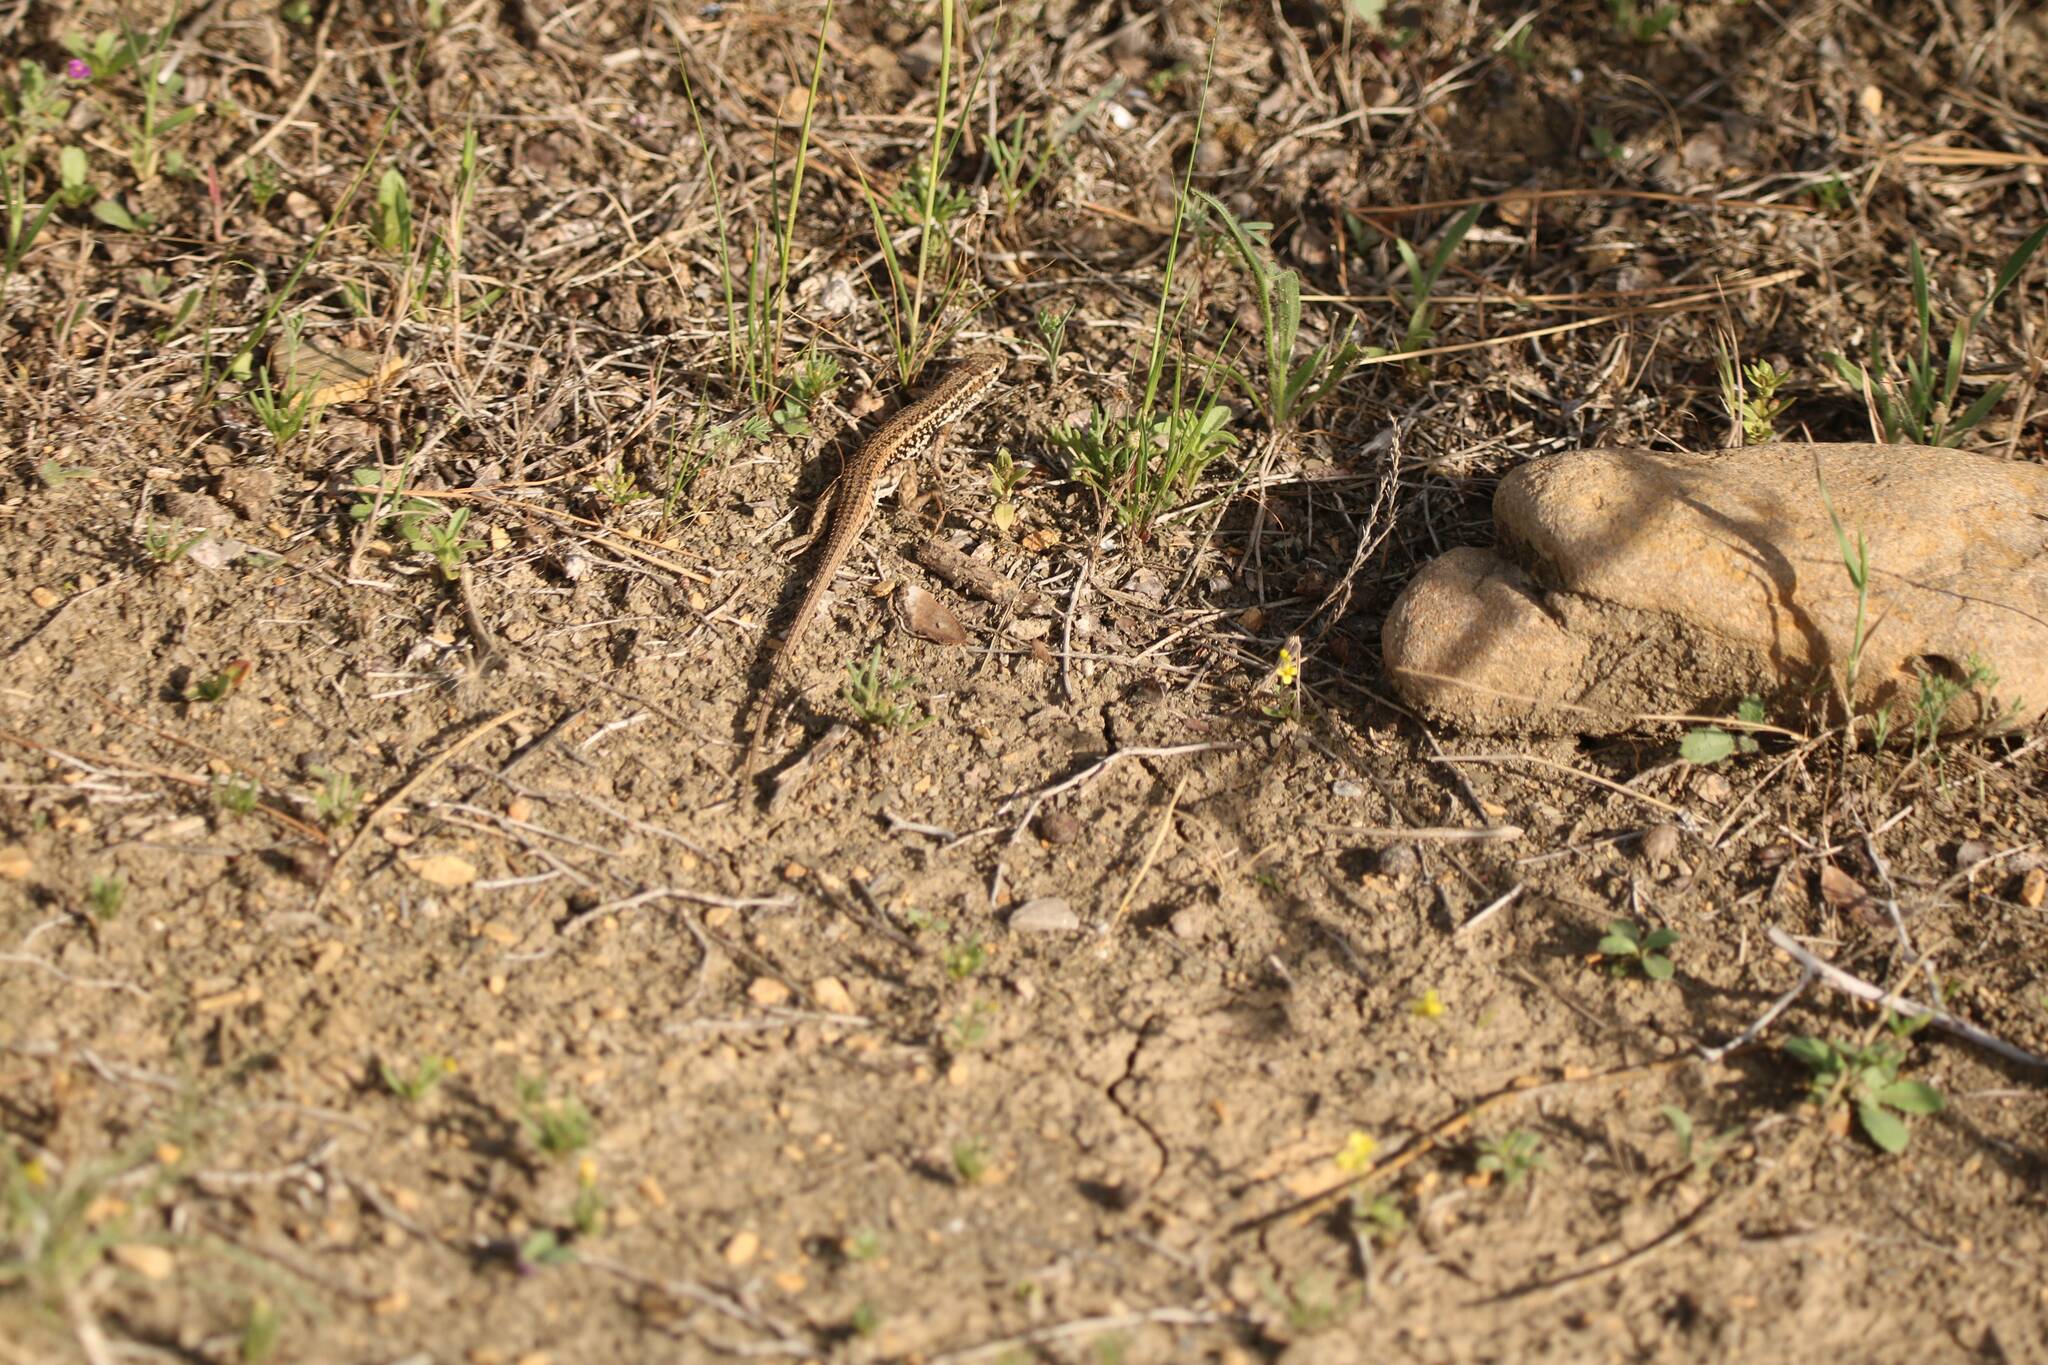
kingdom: Animalia
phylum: Chordata
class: Squamata
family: Lacertidae
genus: Ophisops
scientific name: Ophisops occidentalis
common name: Western snake-eyed lizard
